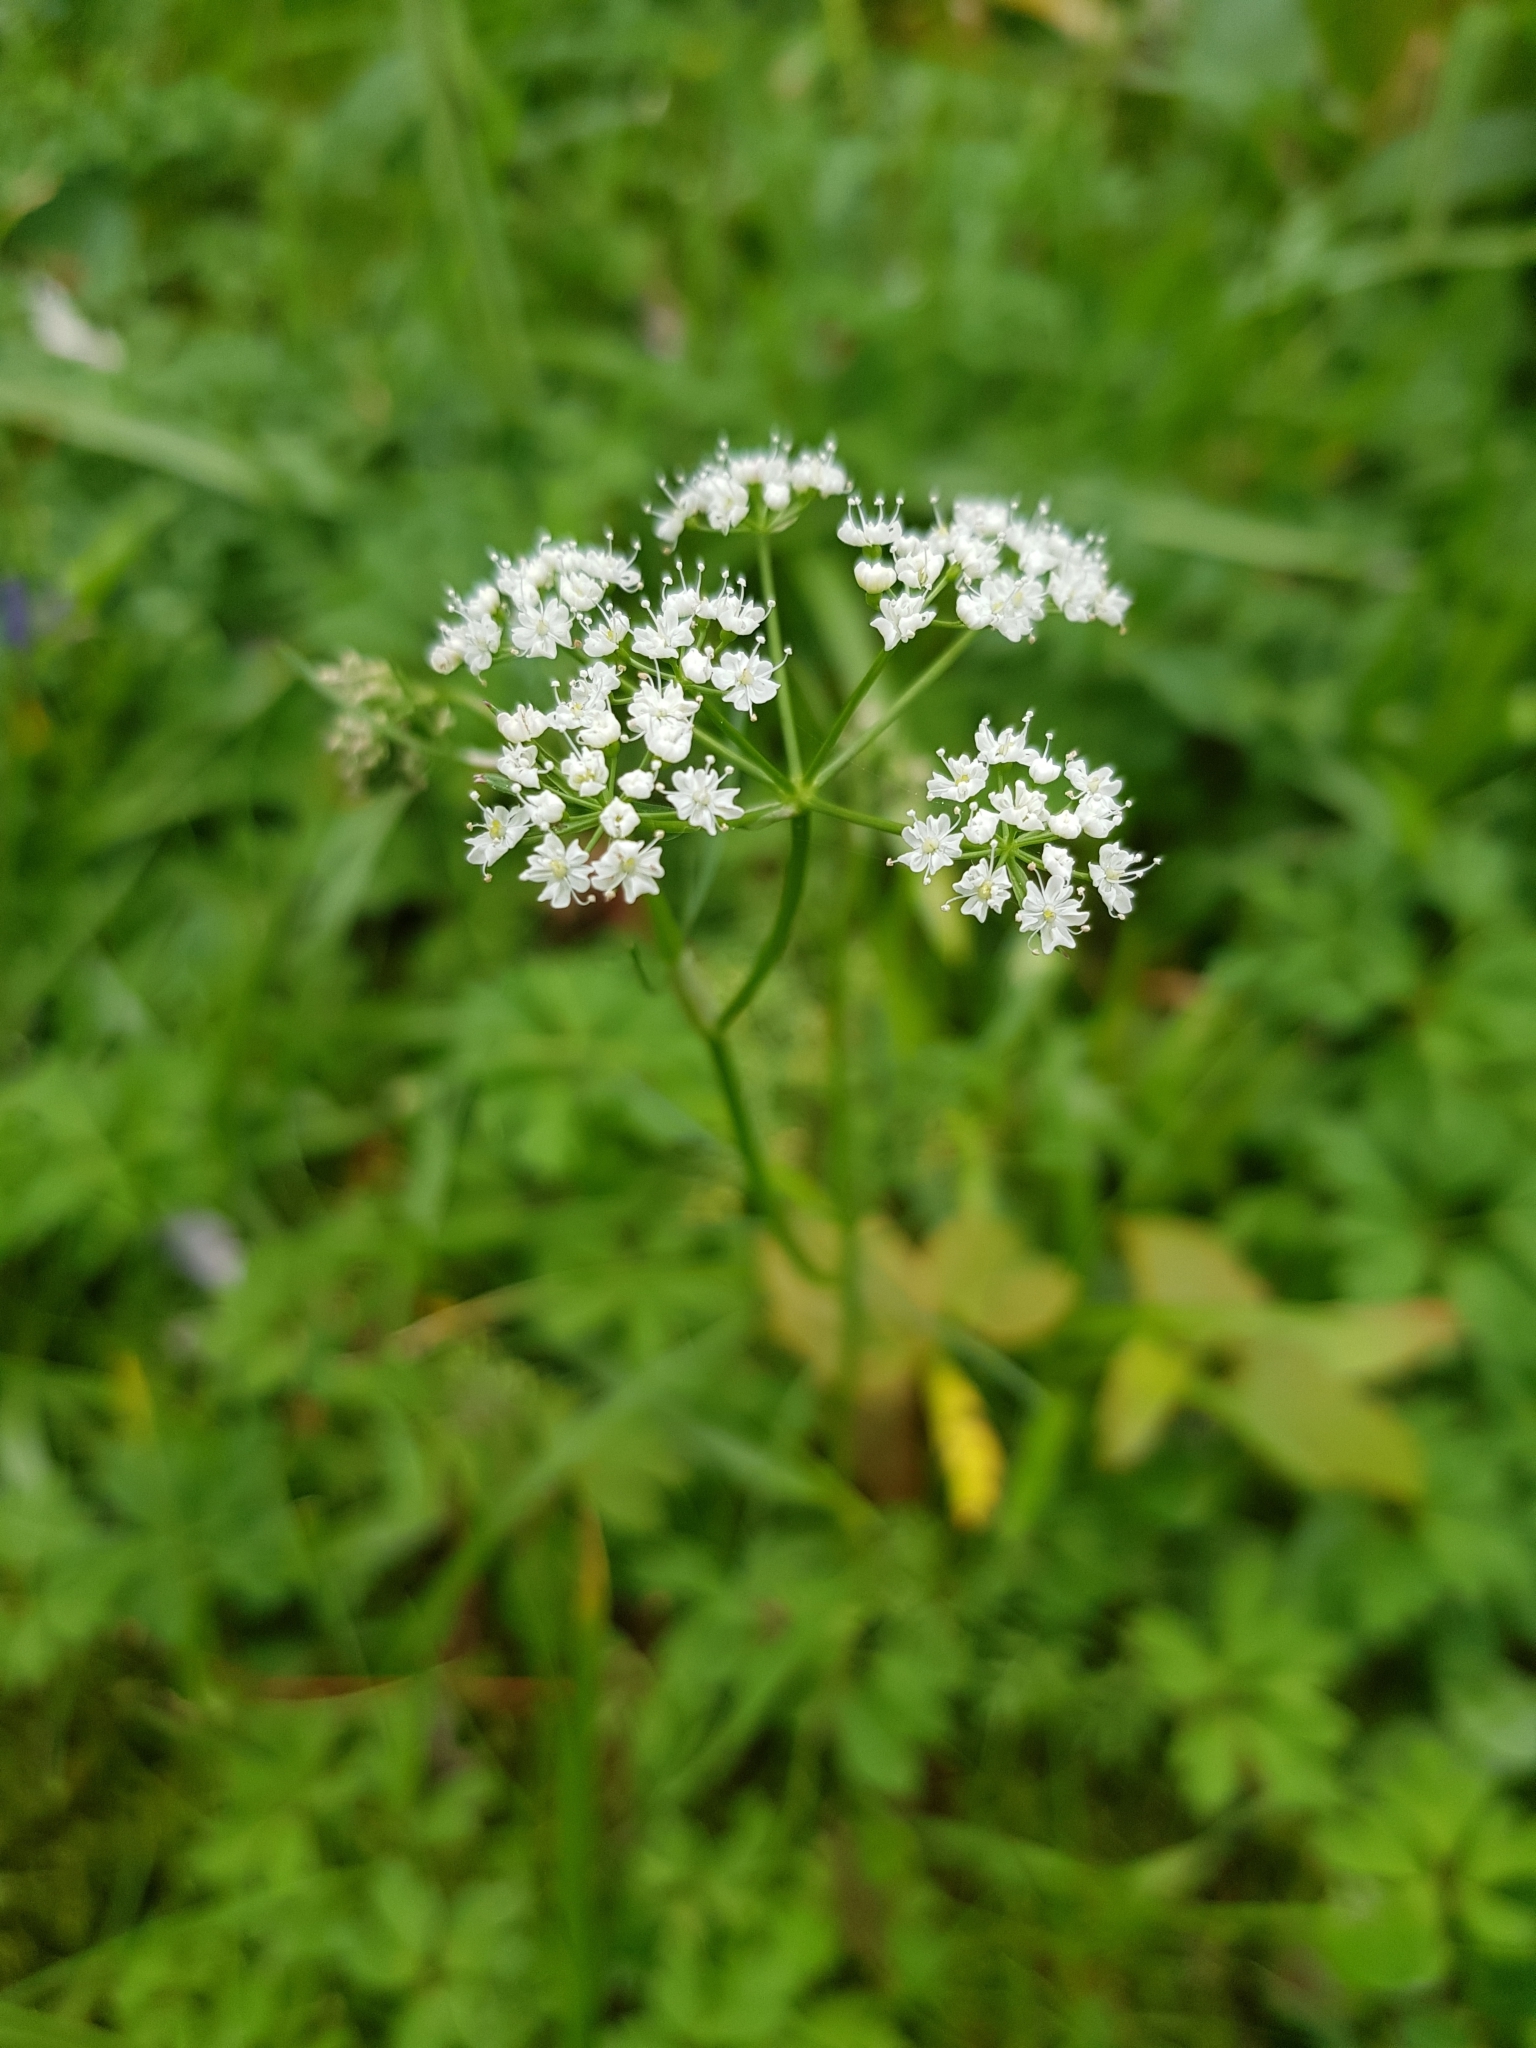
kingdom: Plantae
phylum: Tracheophyta
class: Magnoliopsida
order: Apiales
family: Apiaceae
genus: Conopodium
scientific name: Conopodium majus
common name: Pignut
